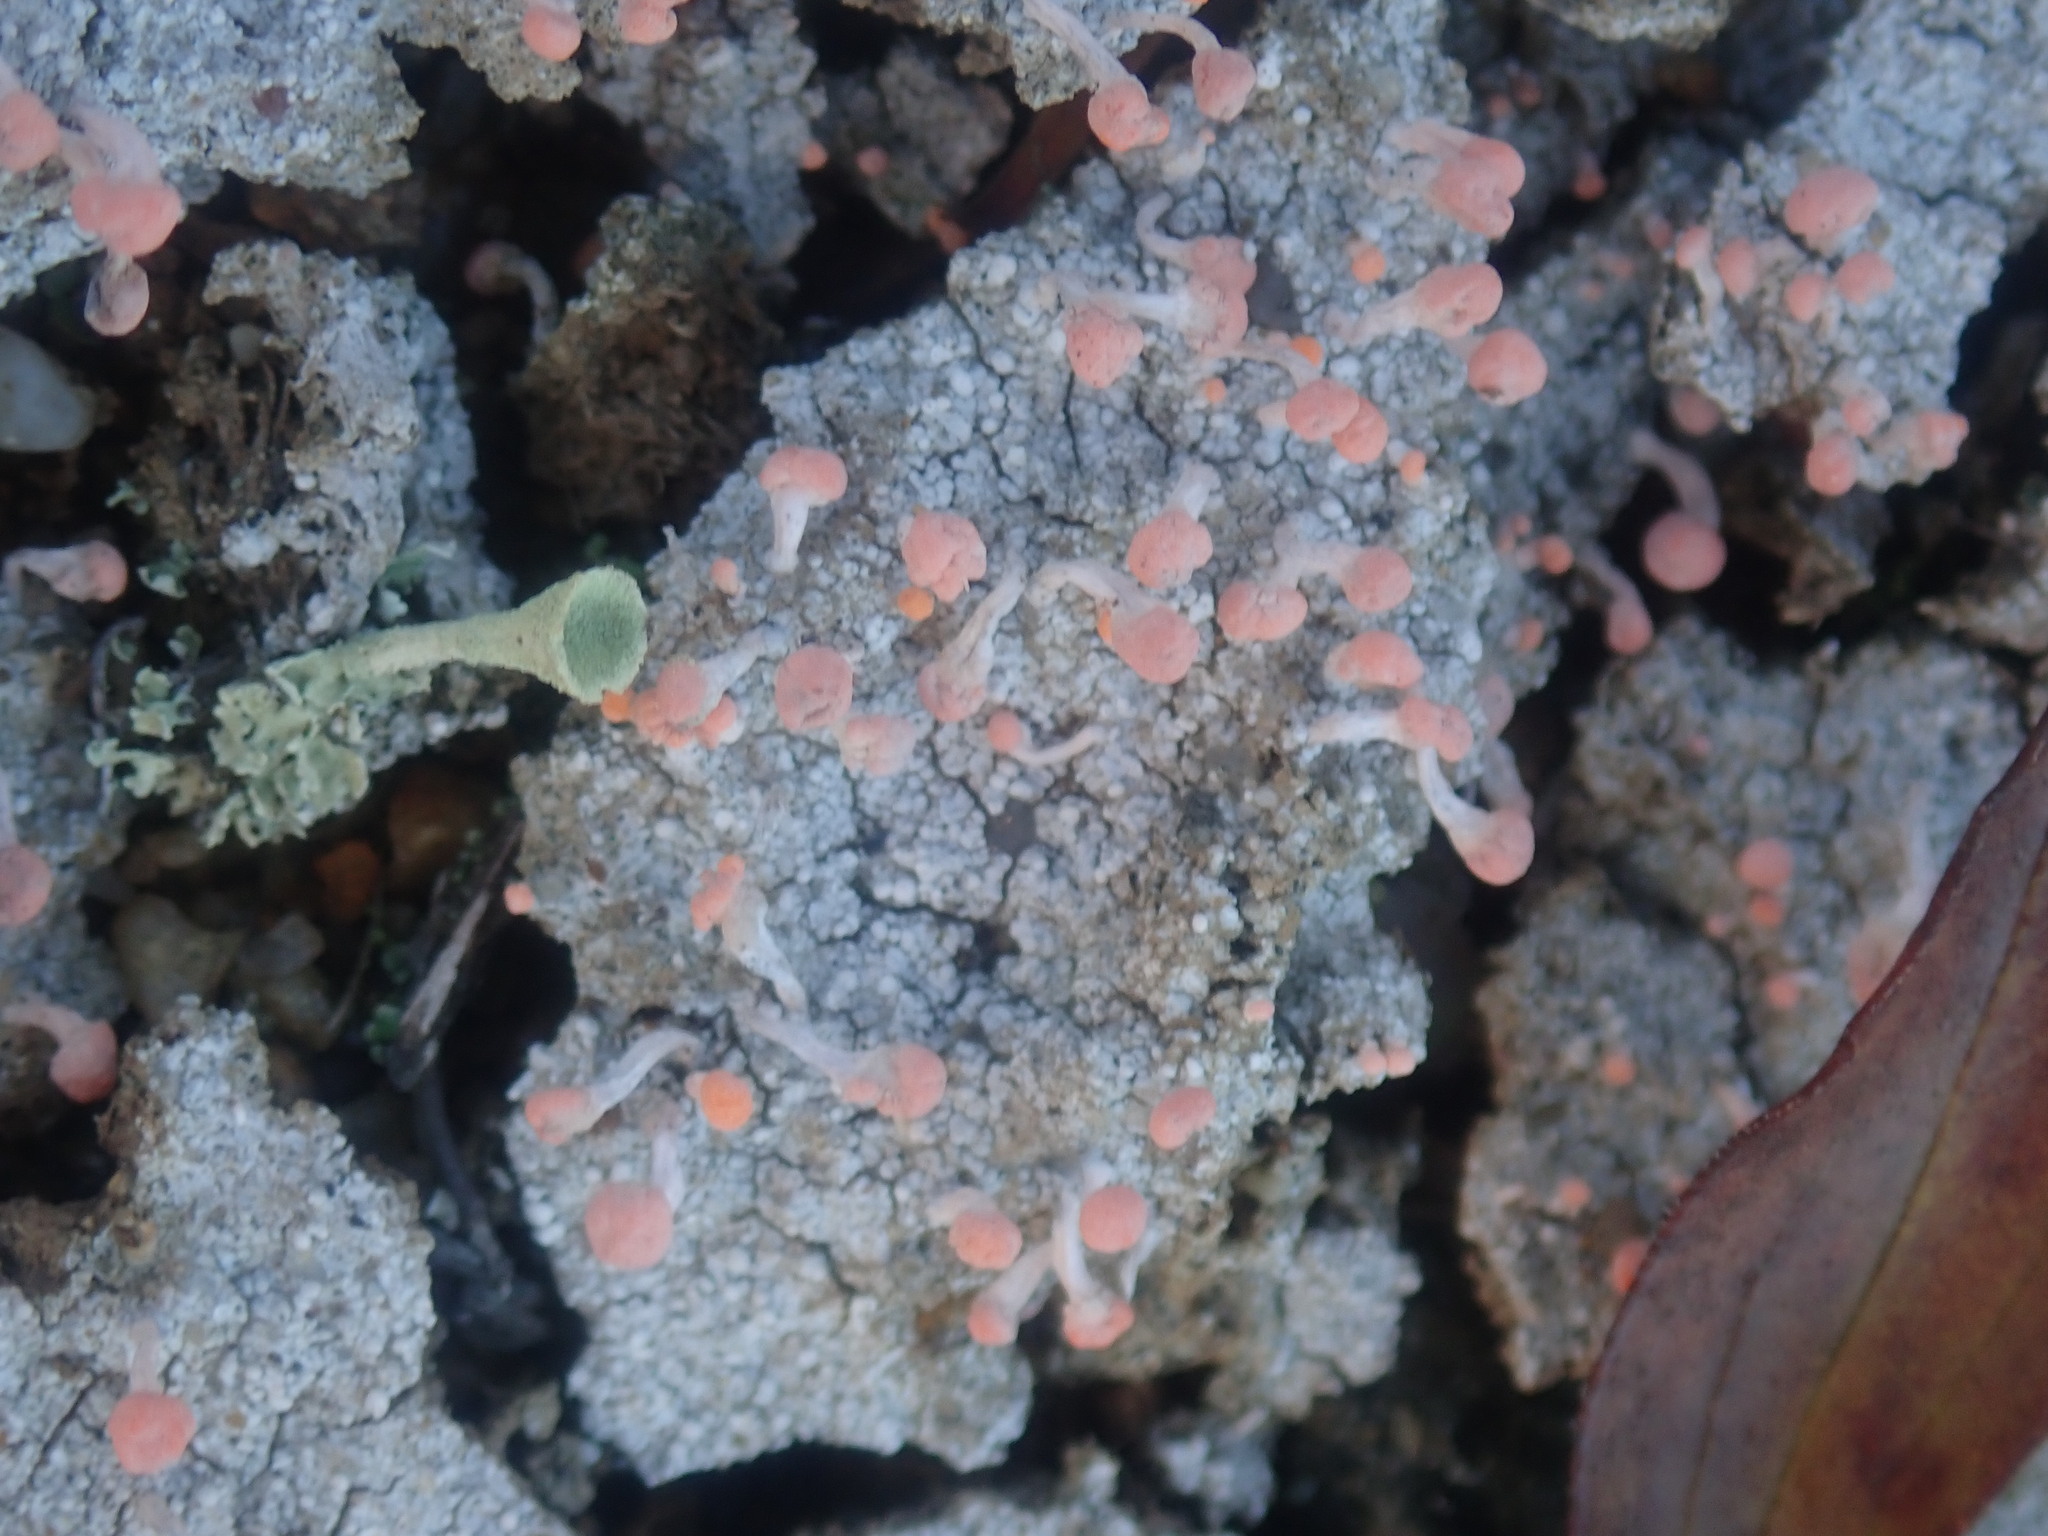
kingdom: Fungi
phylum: Ascomycota
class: Lecanoromycetes
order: Pertusariales
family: Icmadophilaceae
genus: Dibaeis
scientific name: Dibaeis baeomyces
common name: Pink earth lichen
